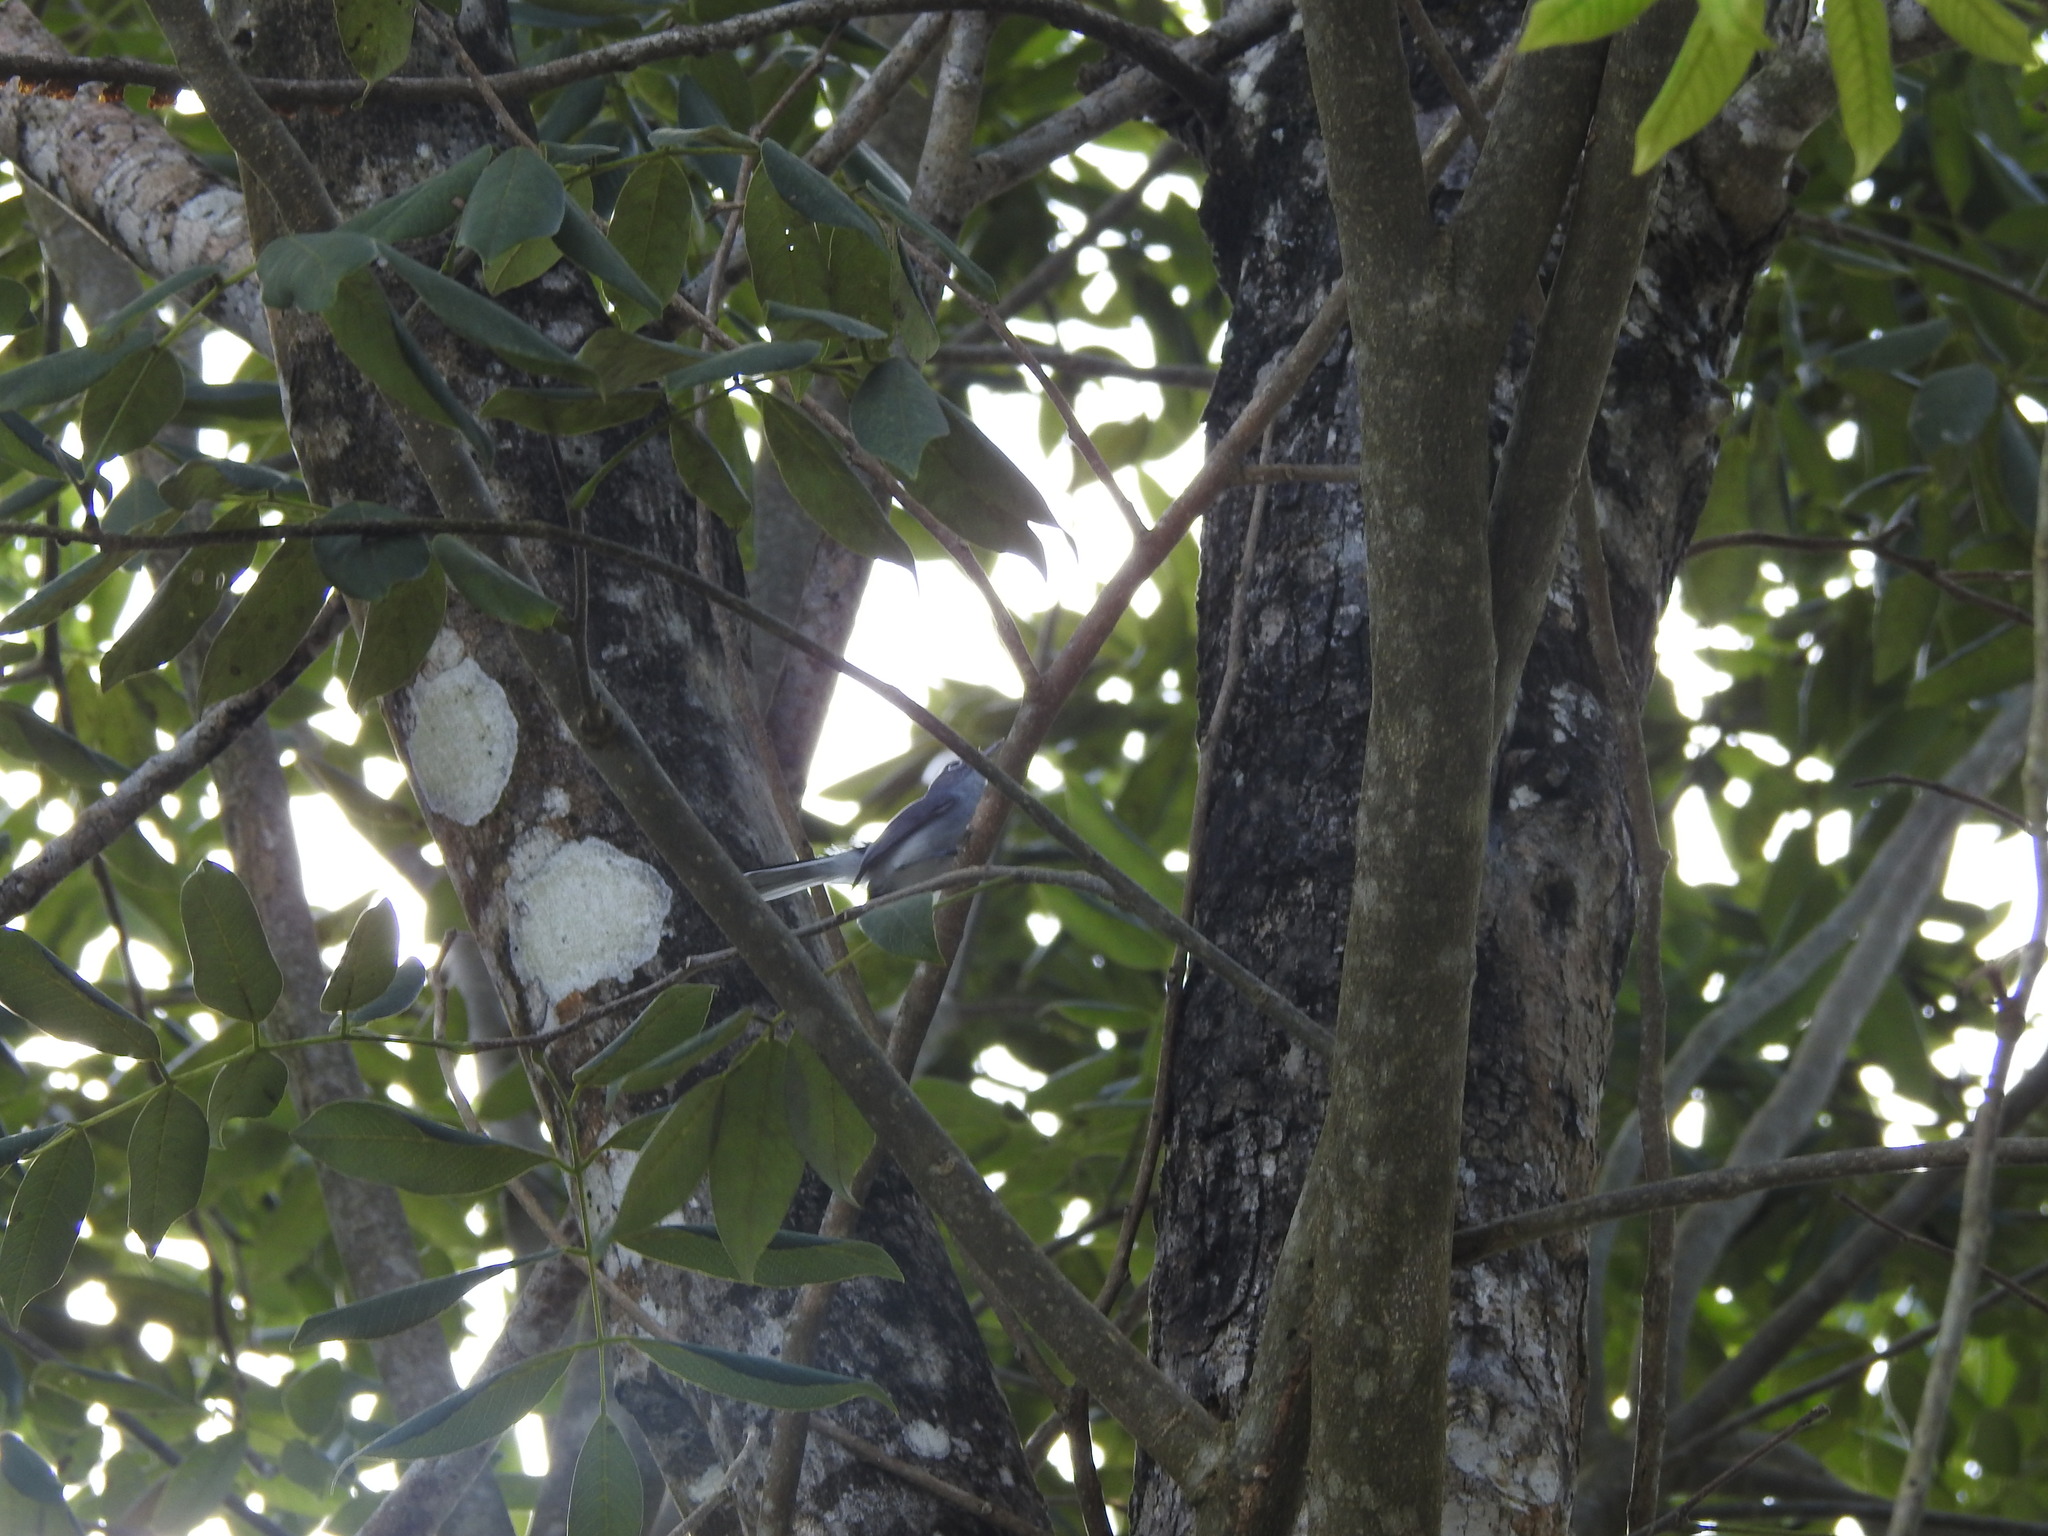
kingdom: Animalia
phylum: Chordata
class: Aves
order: Passeriformes
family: Polioptilidae
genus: Polioptila
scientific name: Polioptila caerulea
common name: Blue-gray gnatcatcher
